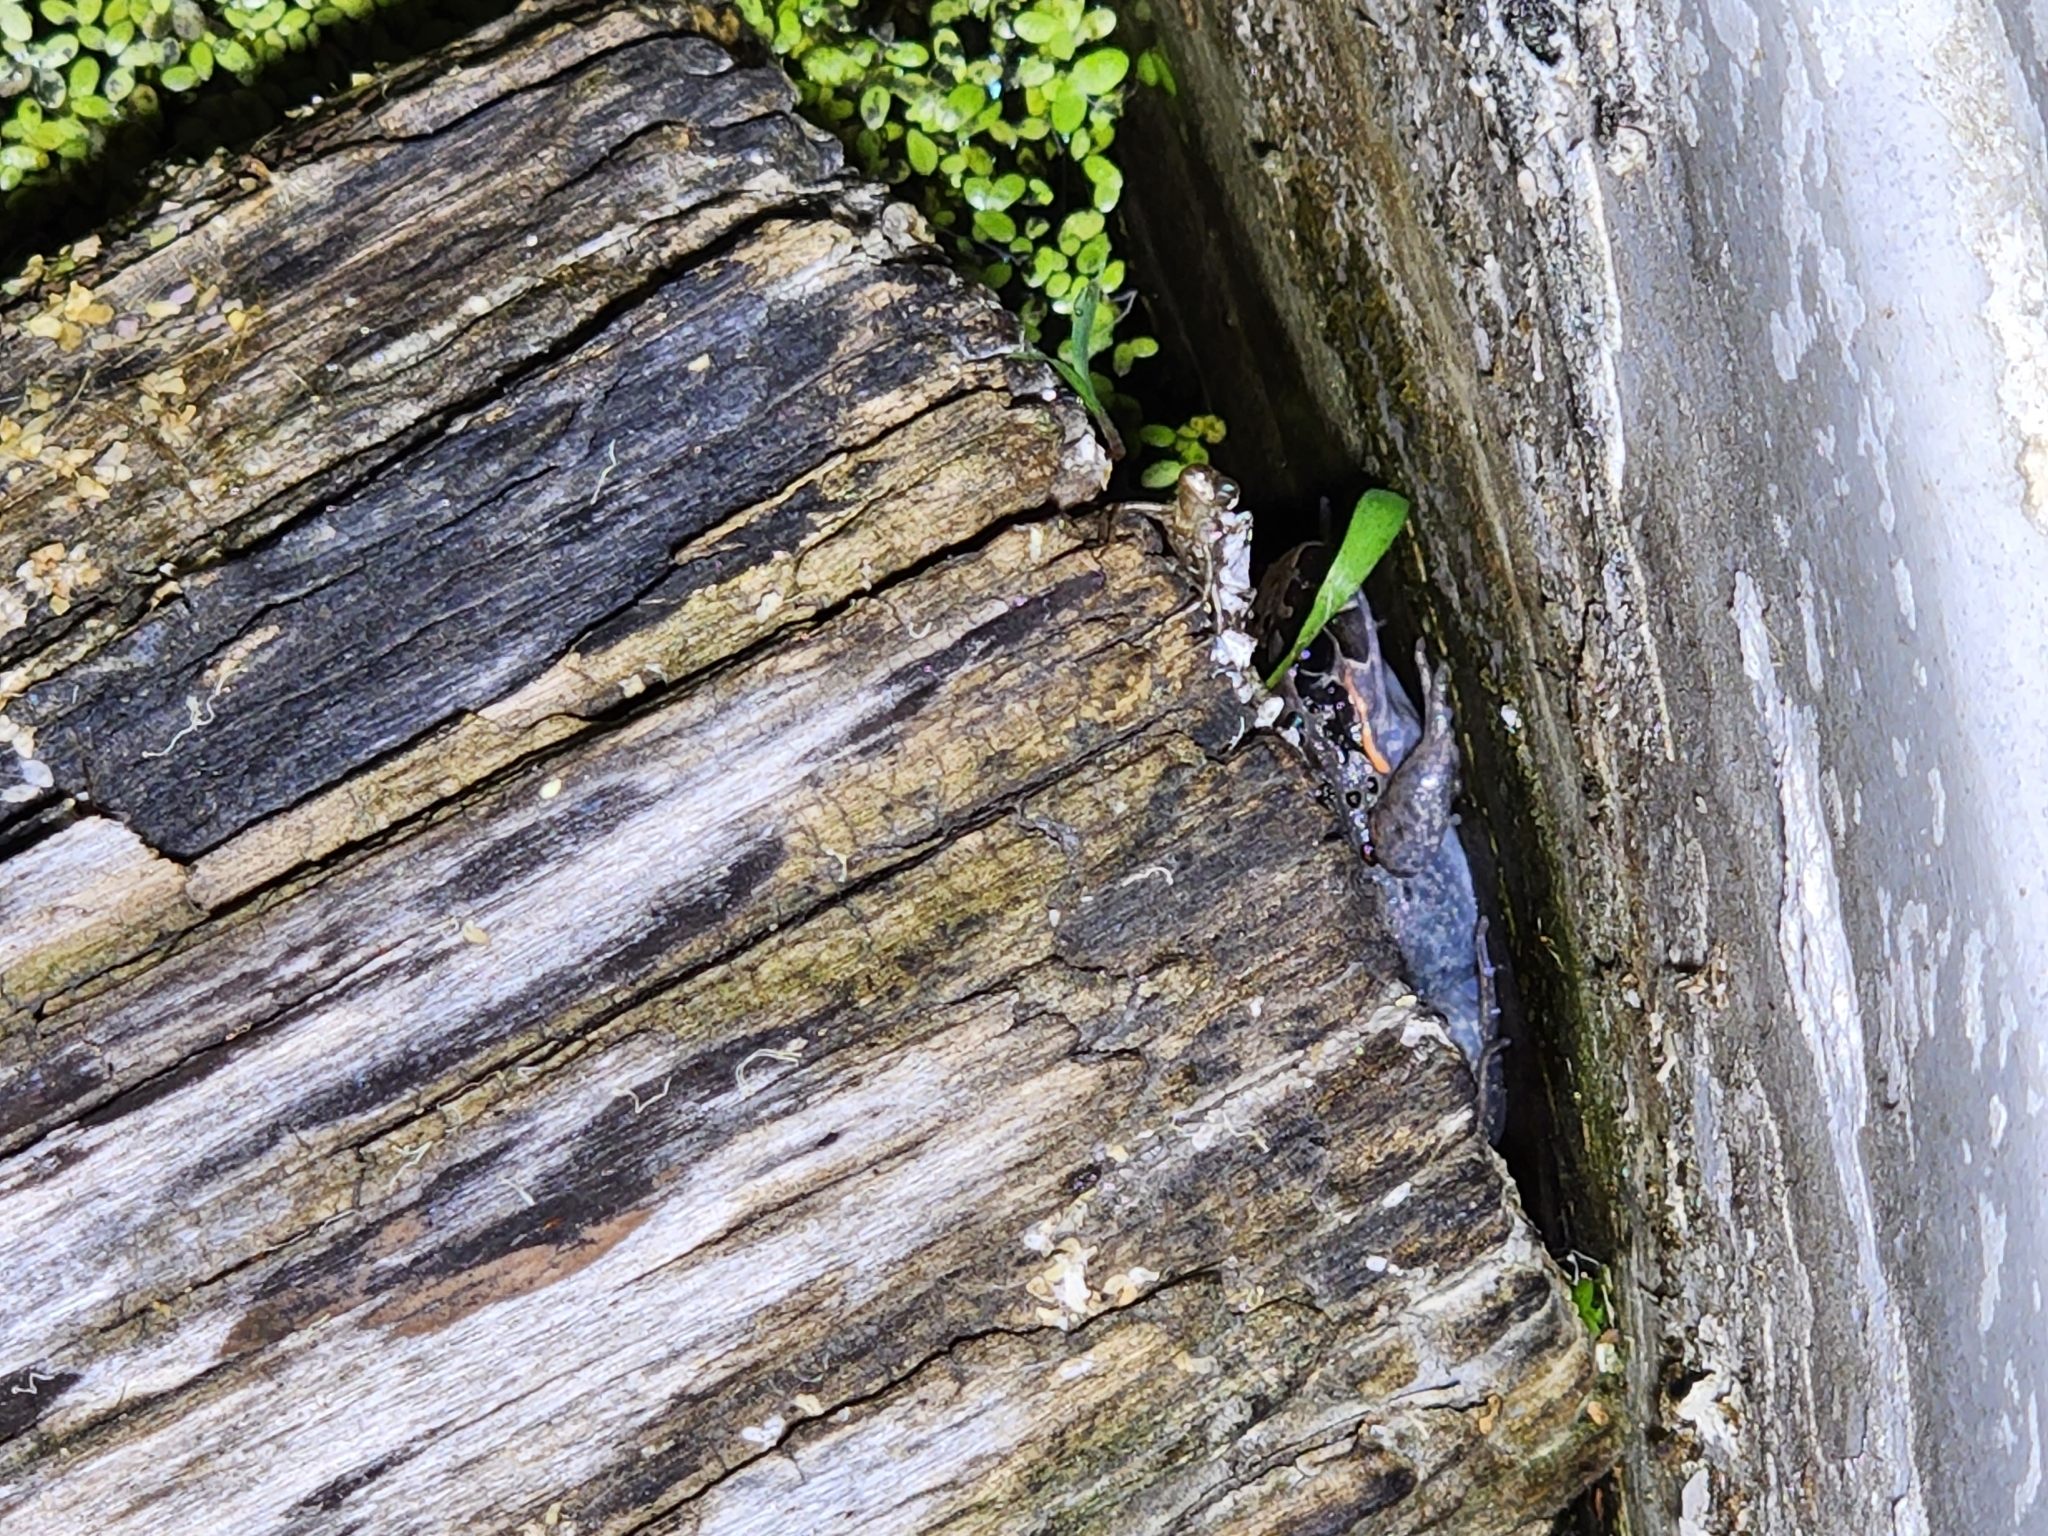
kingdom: Animalia
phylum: Chordata
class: Amphibia
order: Anura
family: Limnodynastidae
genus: Limnodynastes
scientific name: Limnodynastes salmini
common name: Salmon-striped frog
